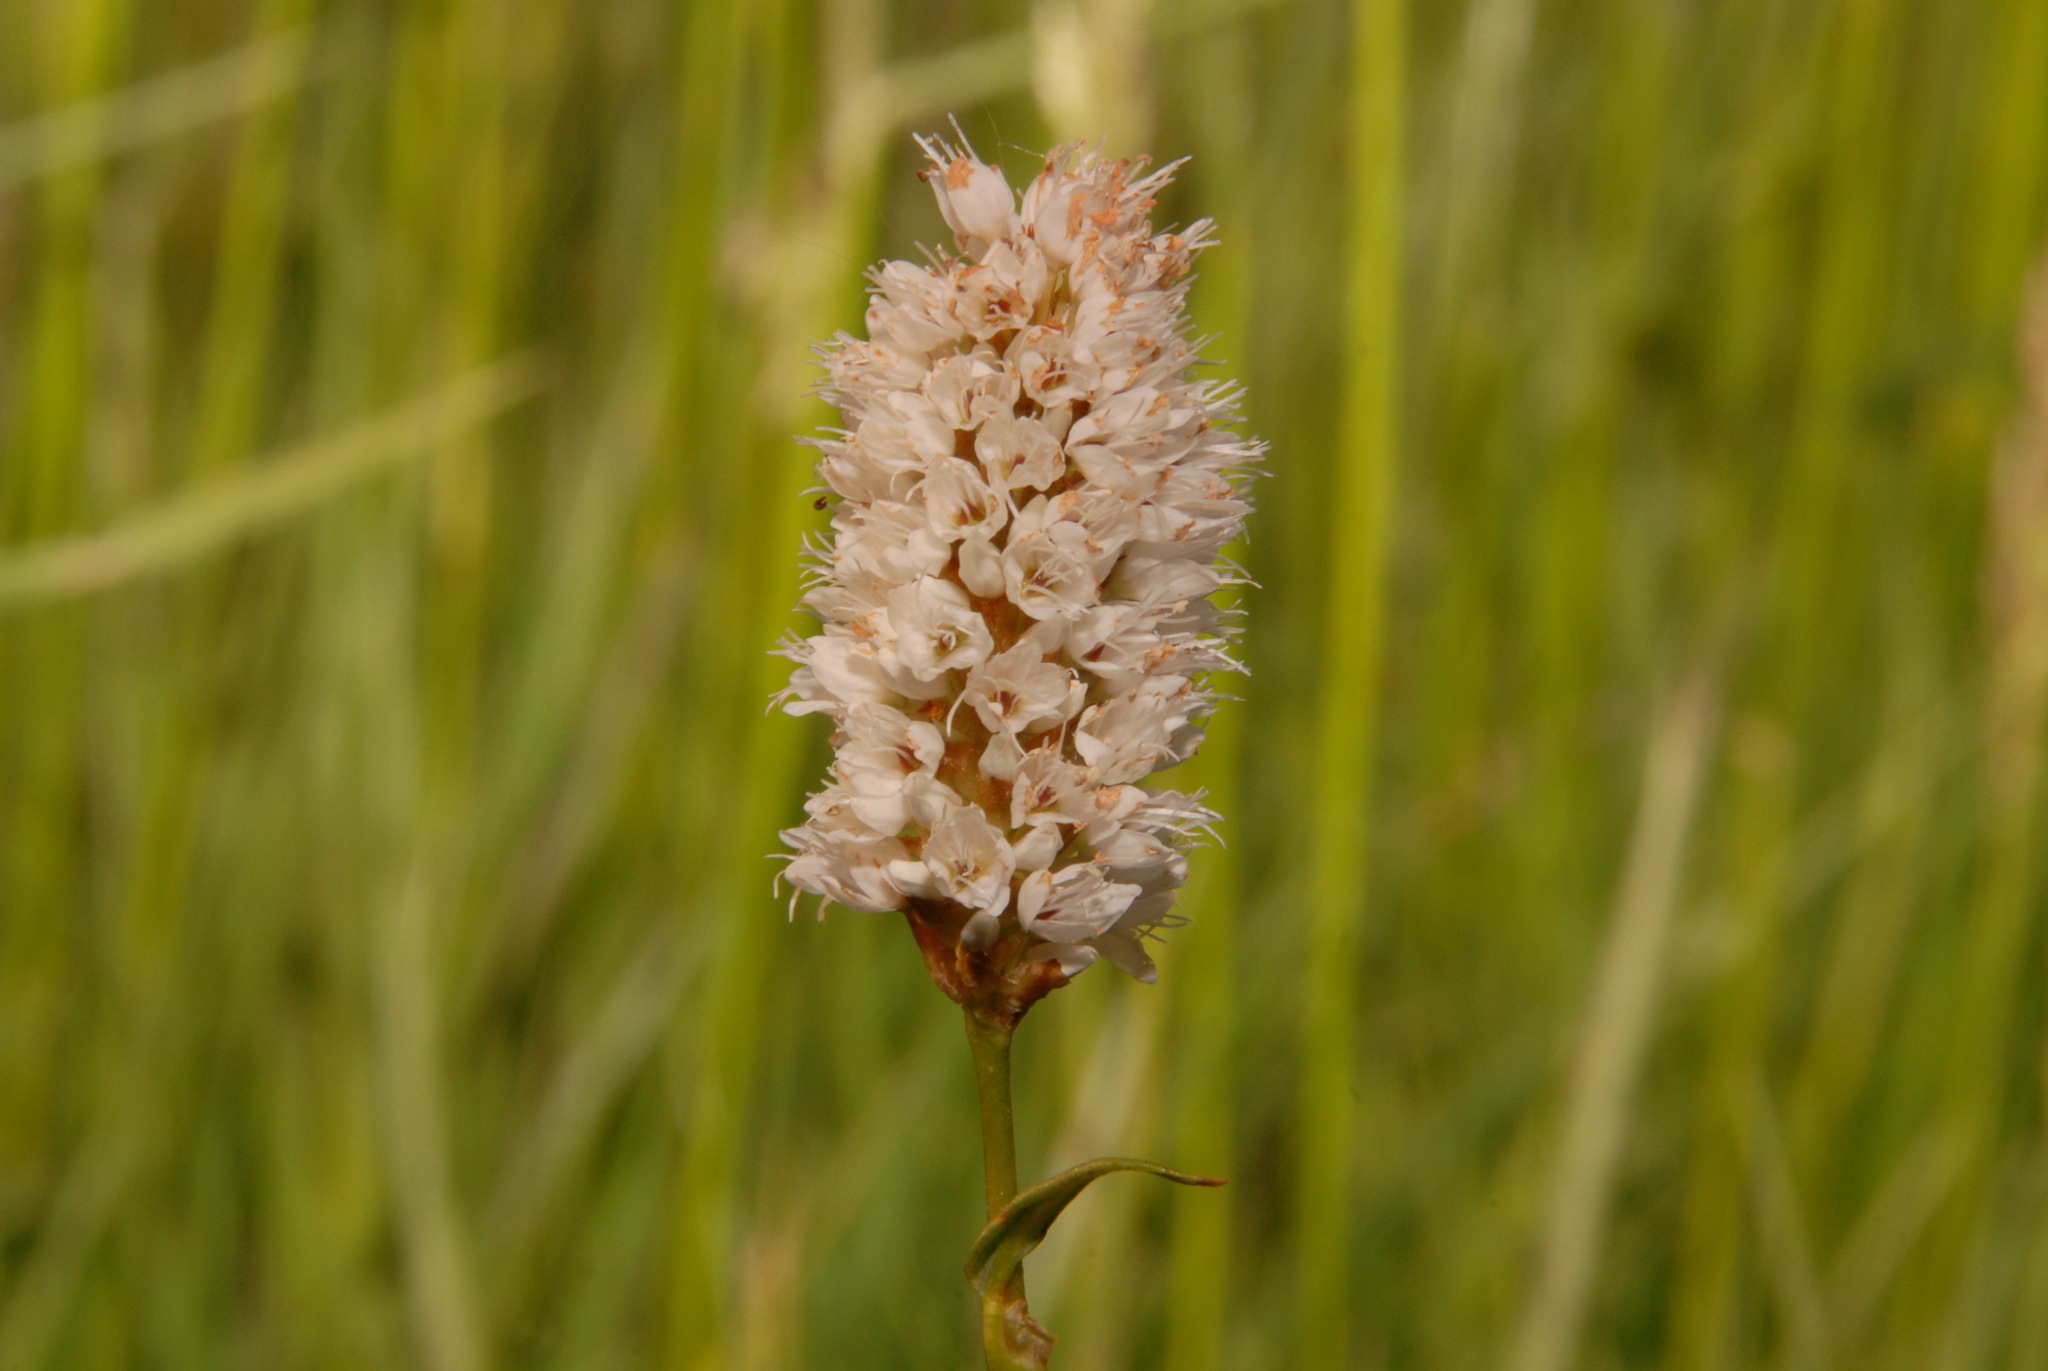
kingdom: Plantae
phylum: Tracheophyta
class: Magnoliopsida
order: Caryophyllales
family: Polygonaceae
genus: Bistorta
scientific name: Bistorta bistortoides
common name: American bistort
